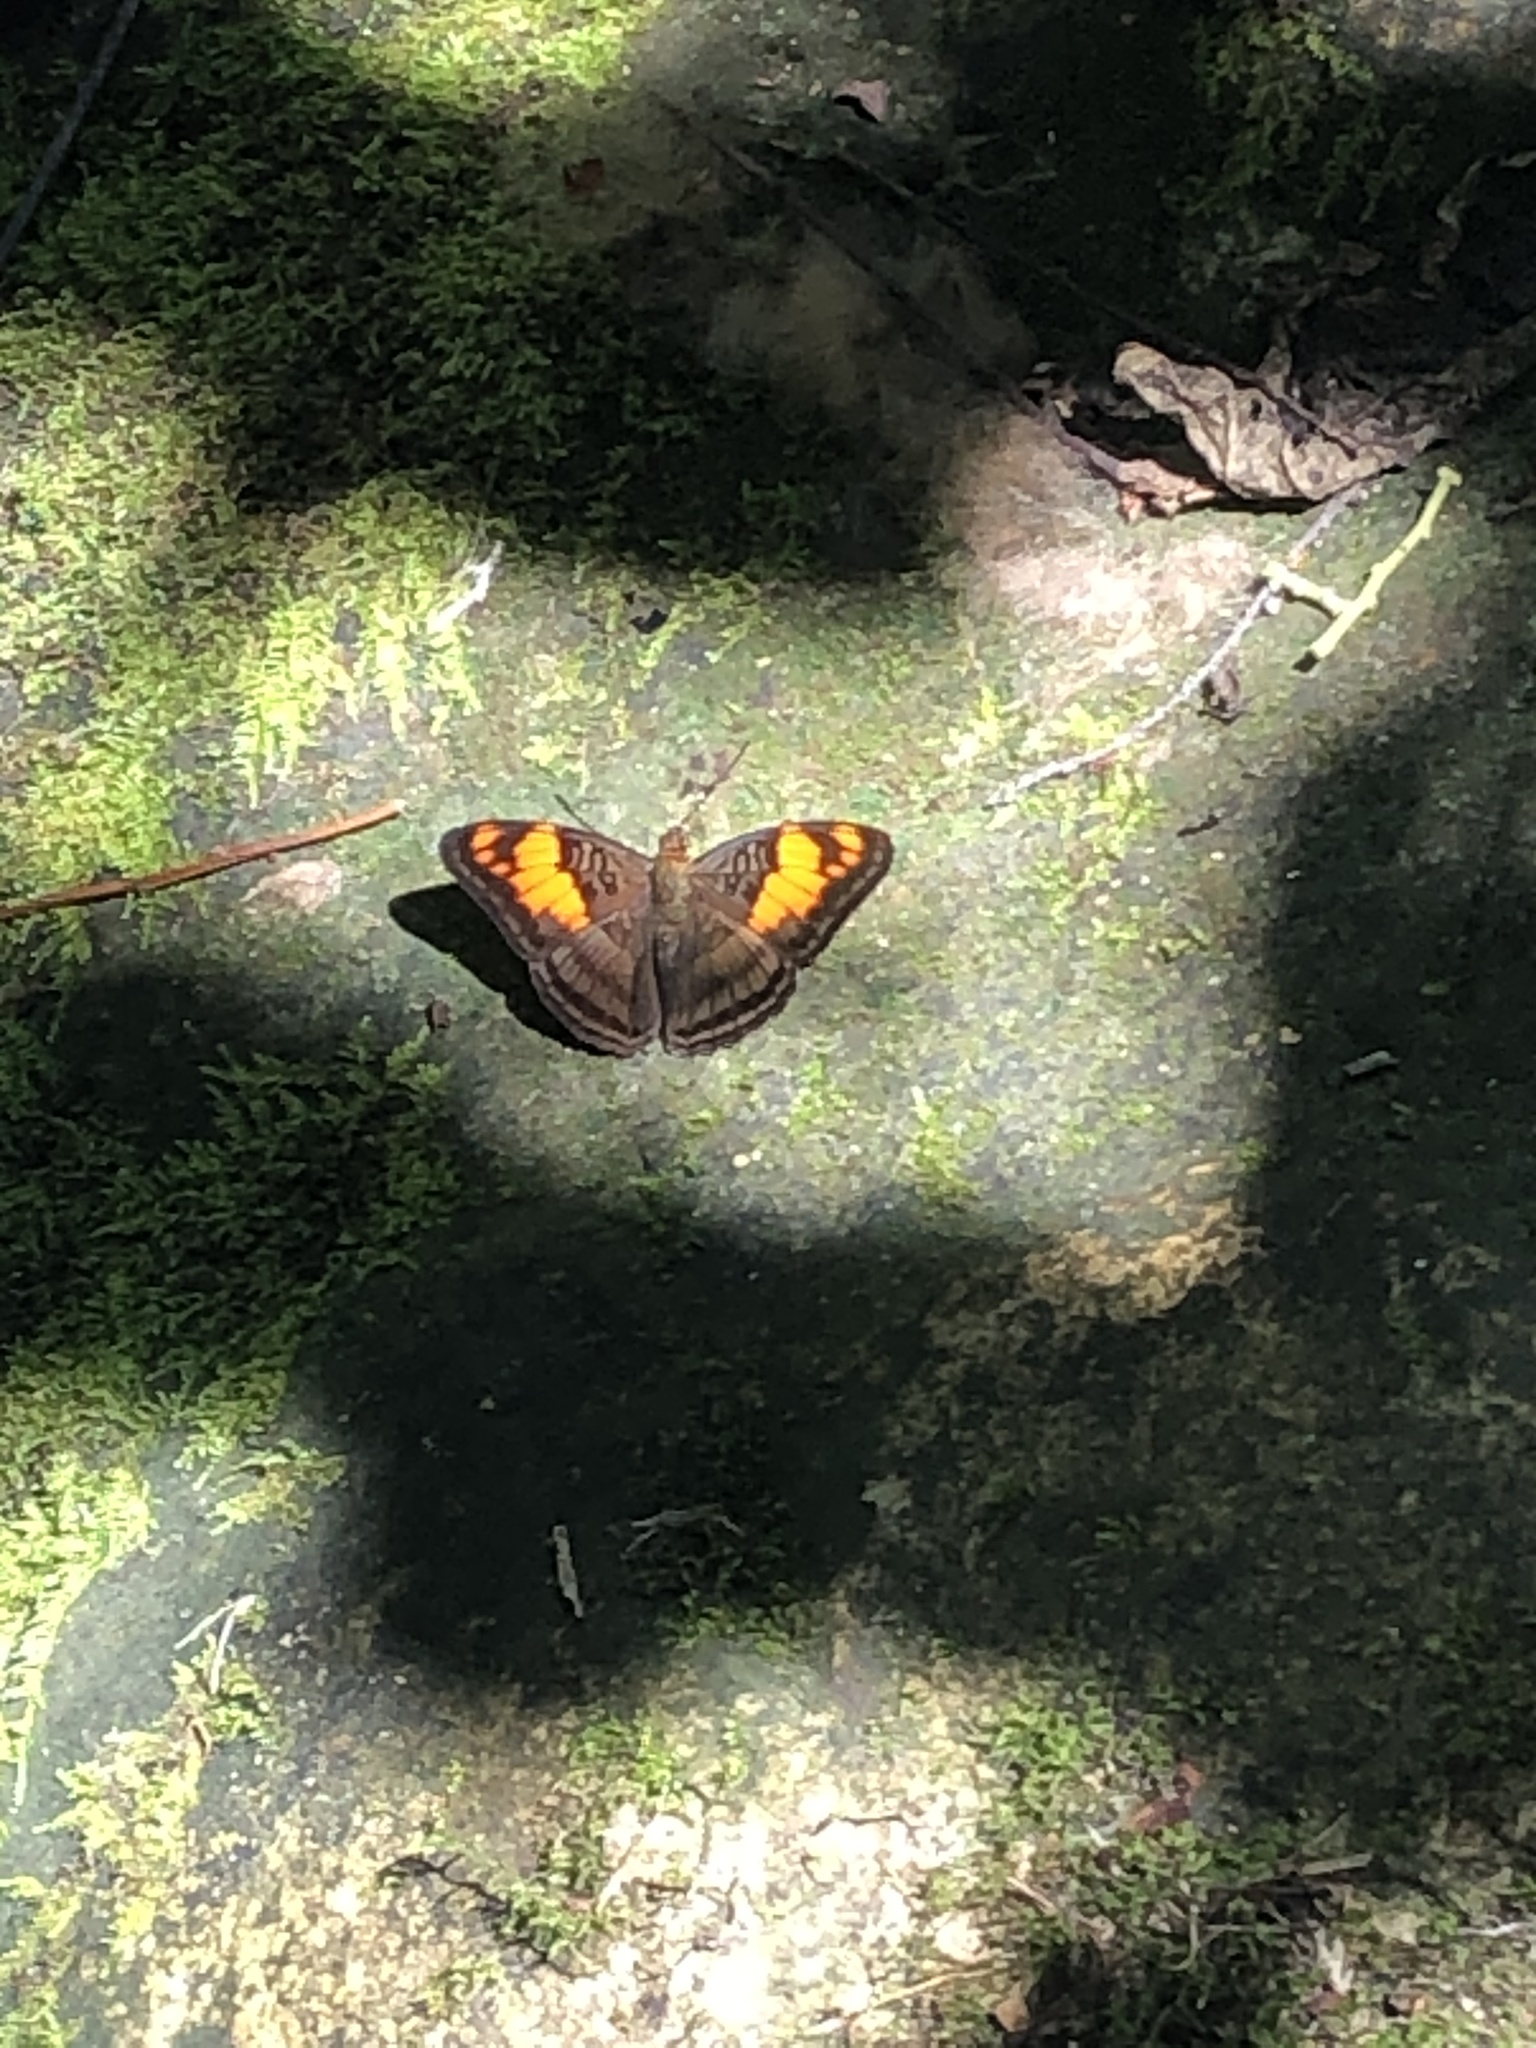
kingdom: Animalia
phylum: Arthropoda
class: Insecta
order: Lepidoptera
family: Nymphalidae
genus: Limenitis
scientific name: Limenitis mesentina
